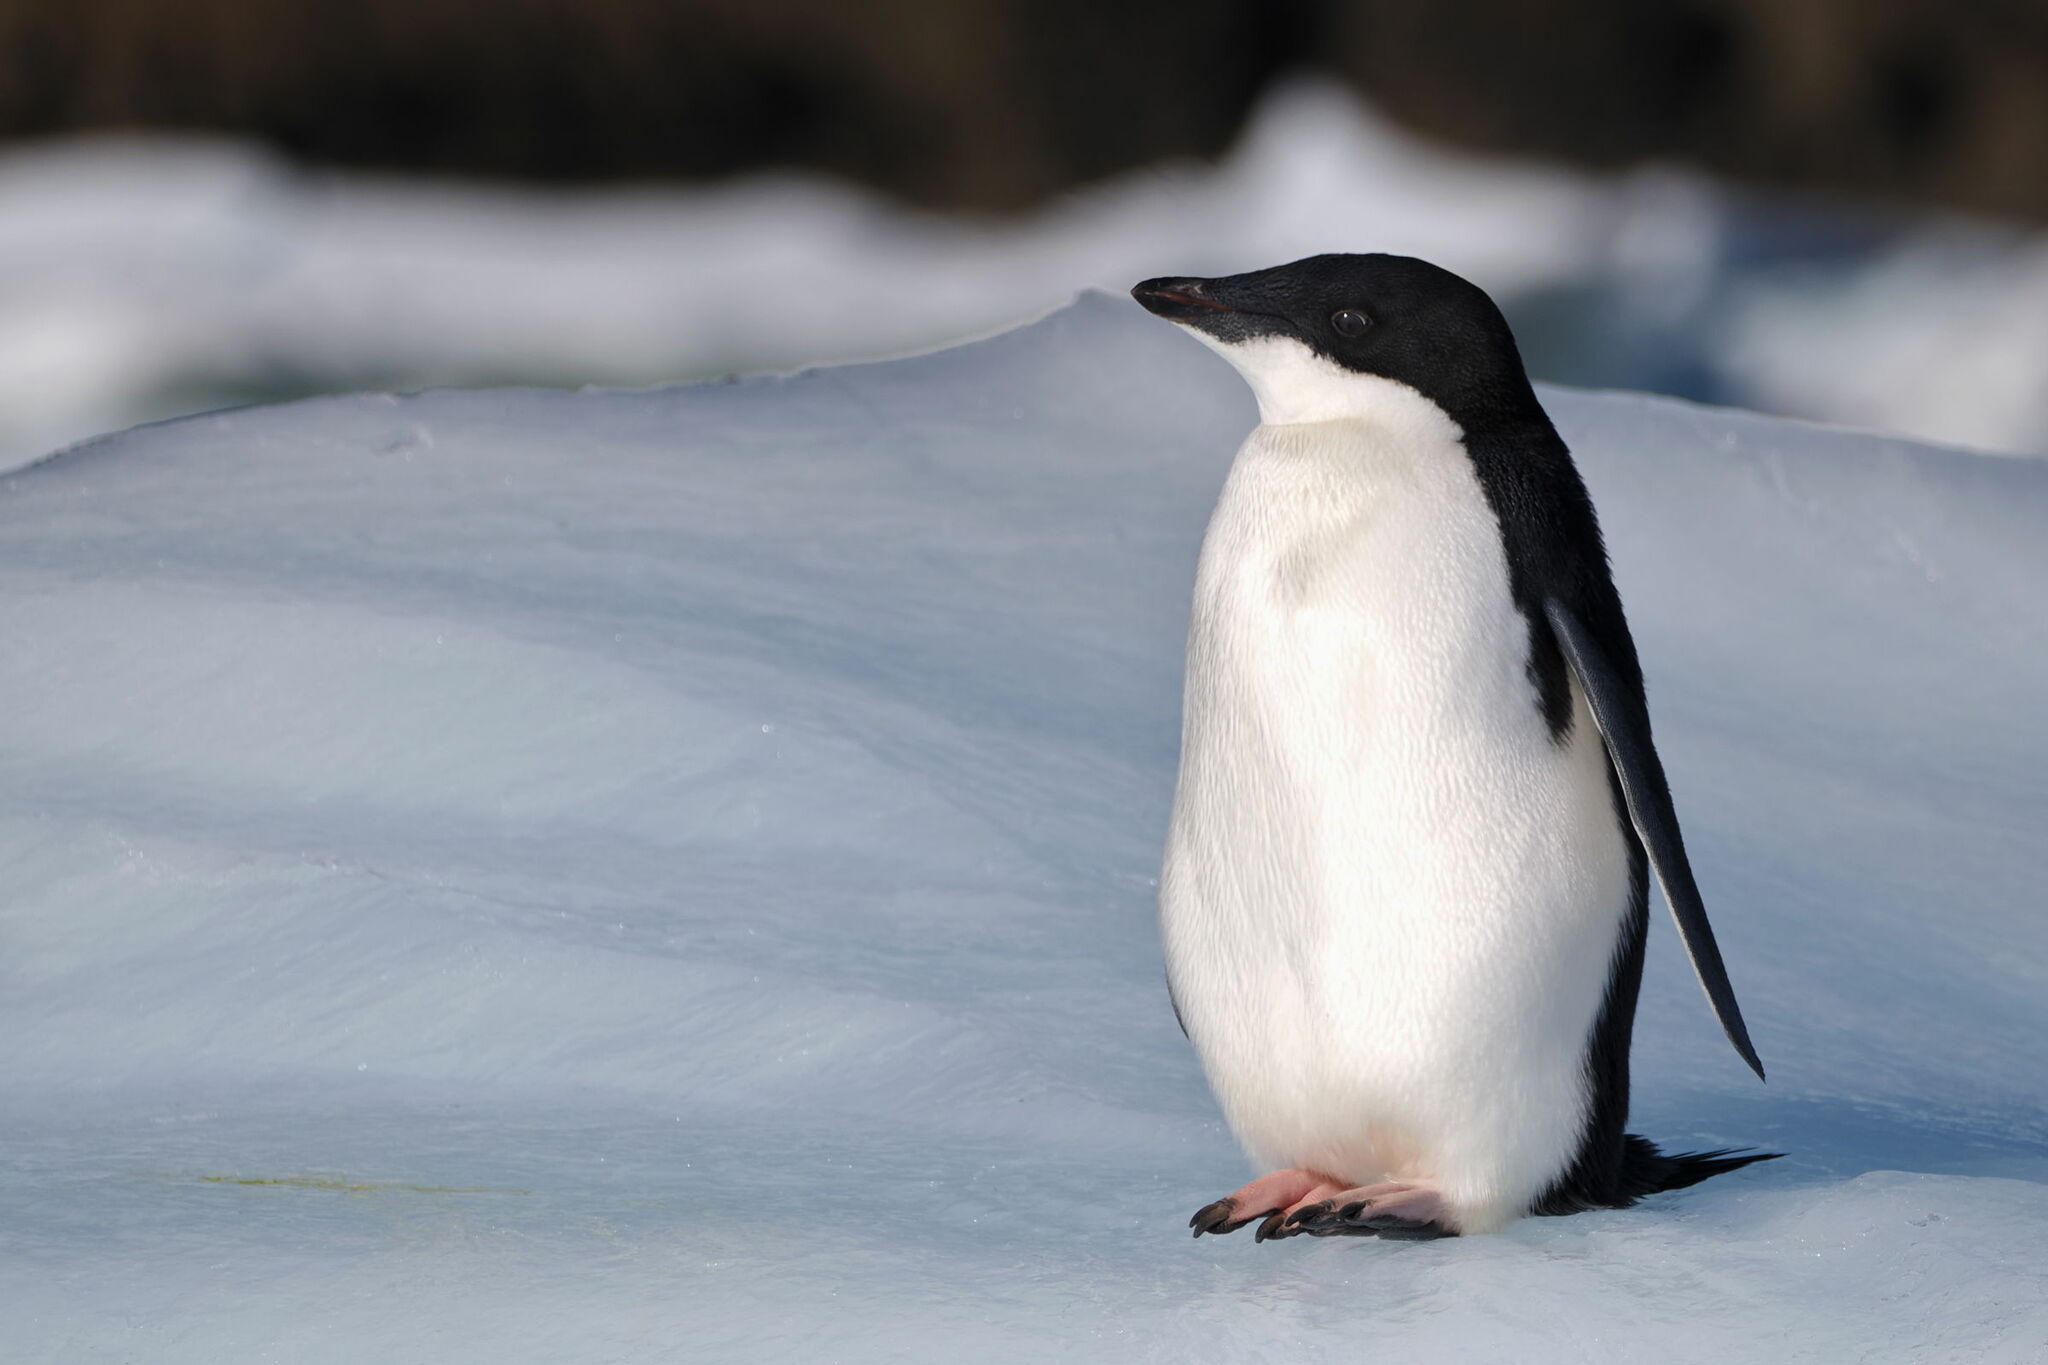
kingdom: Animalia
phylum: Chordata
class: Aves
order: Sphenisciformes
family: Spheniscidae
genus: Pygoscelis
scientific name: Pygoscelis adeliae
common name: Adelie penguin
